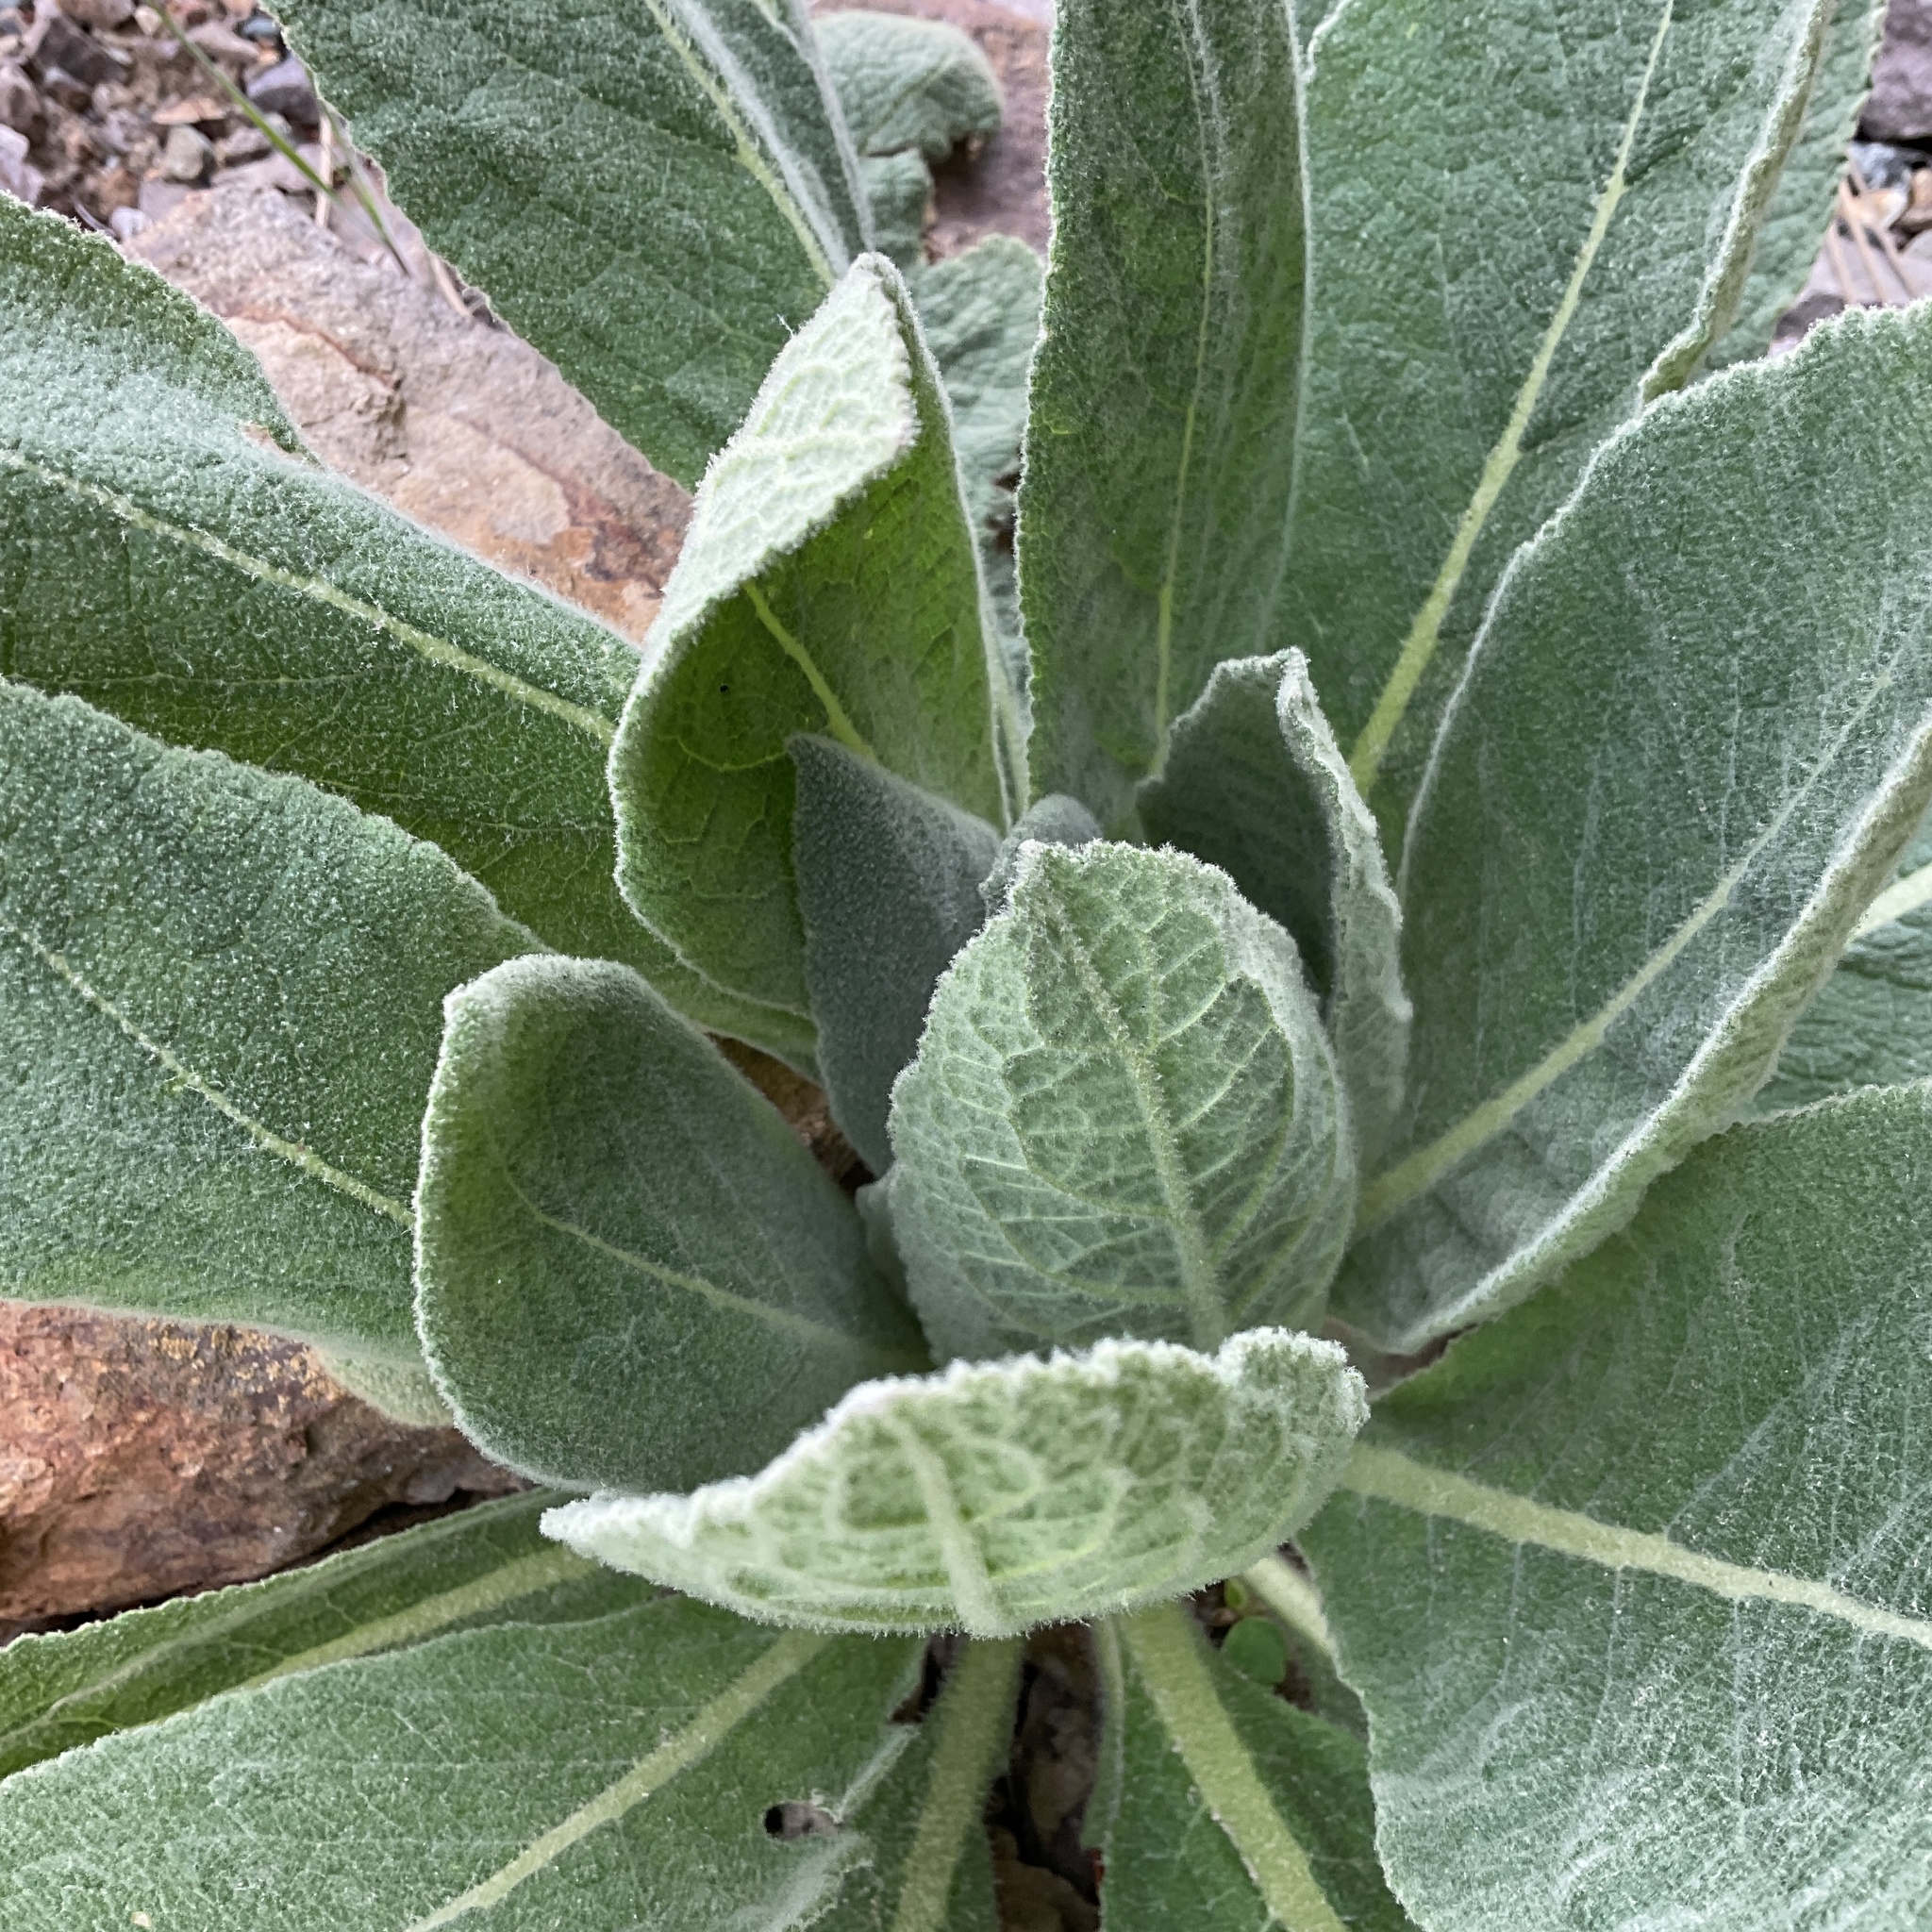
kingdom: Plantae
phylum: Tracheophyta
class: Magnoliopsida
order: Lamiales
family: Scrophulariaceae
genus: Verbascum
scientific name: Verbascum thapsus
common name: Common mullein
